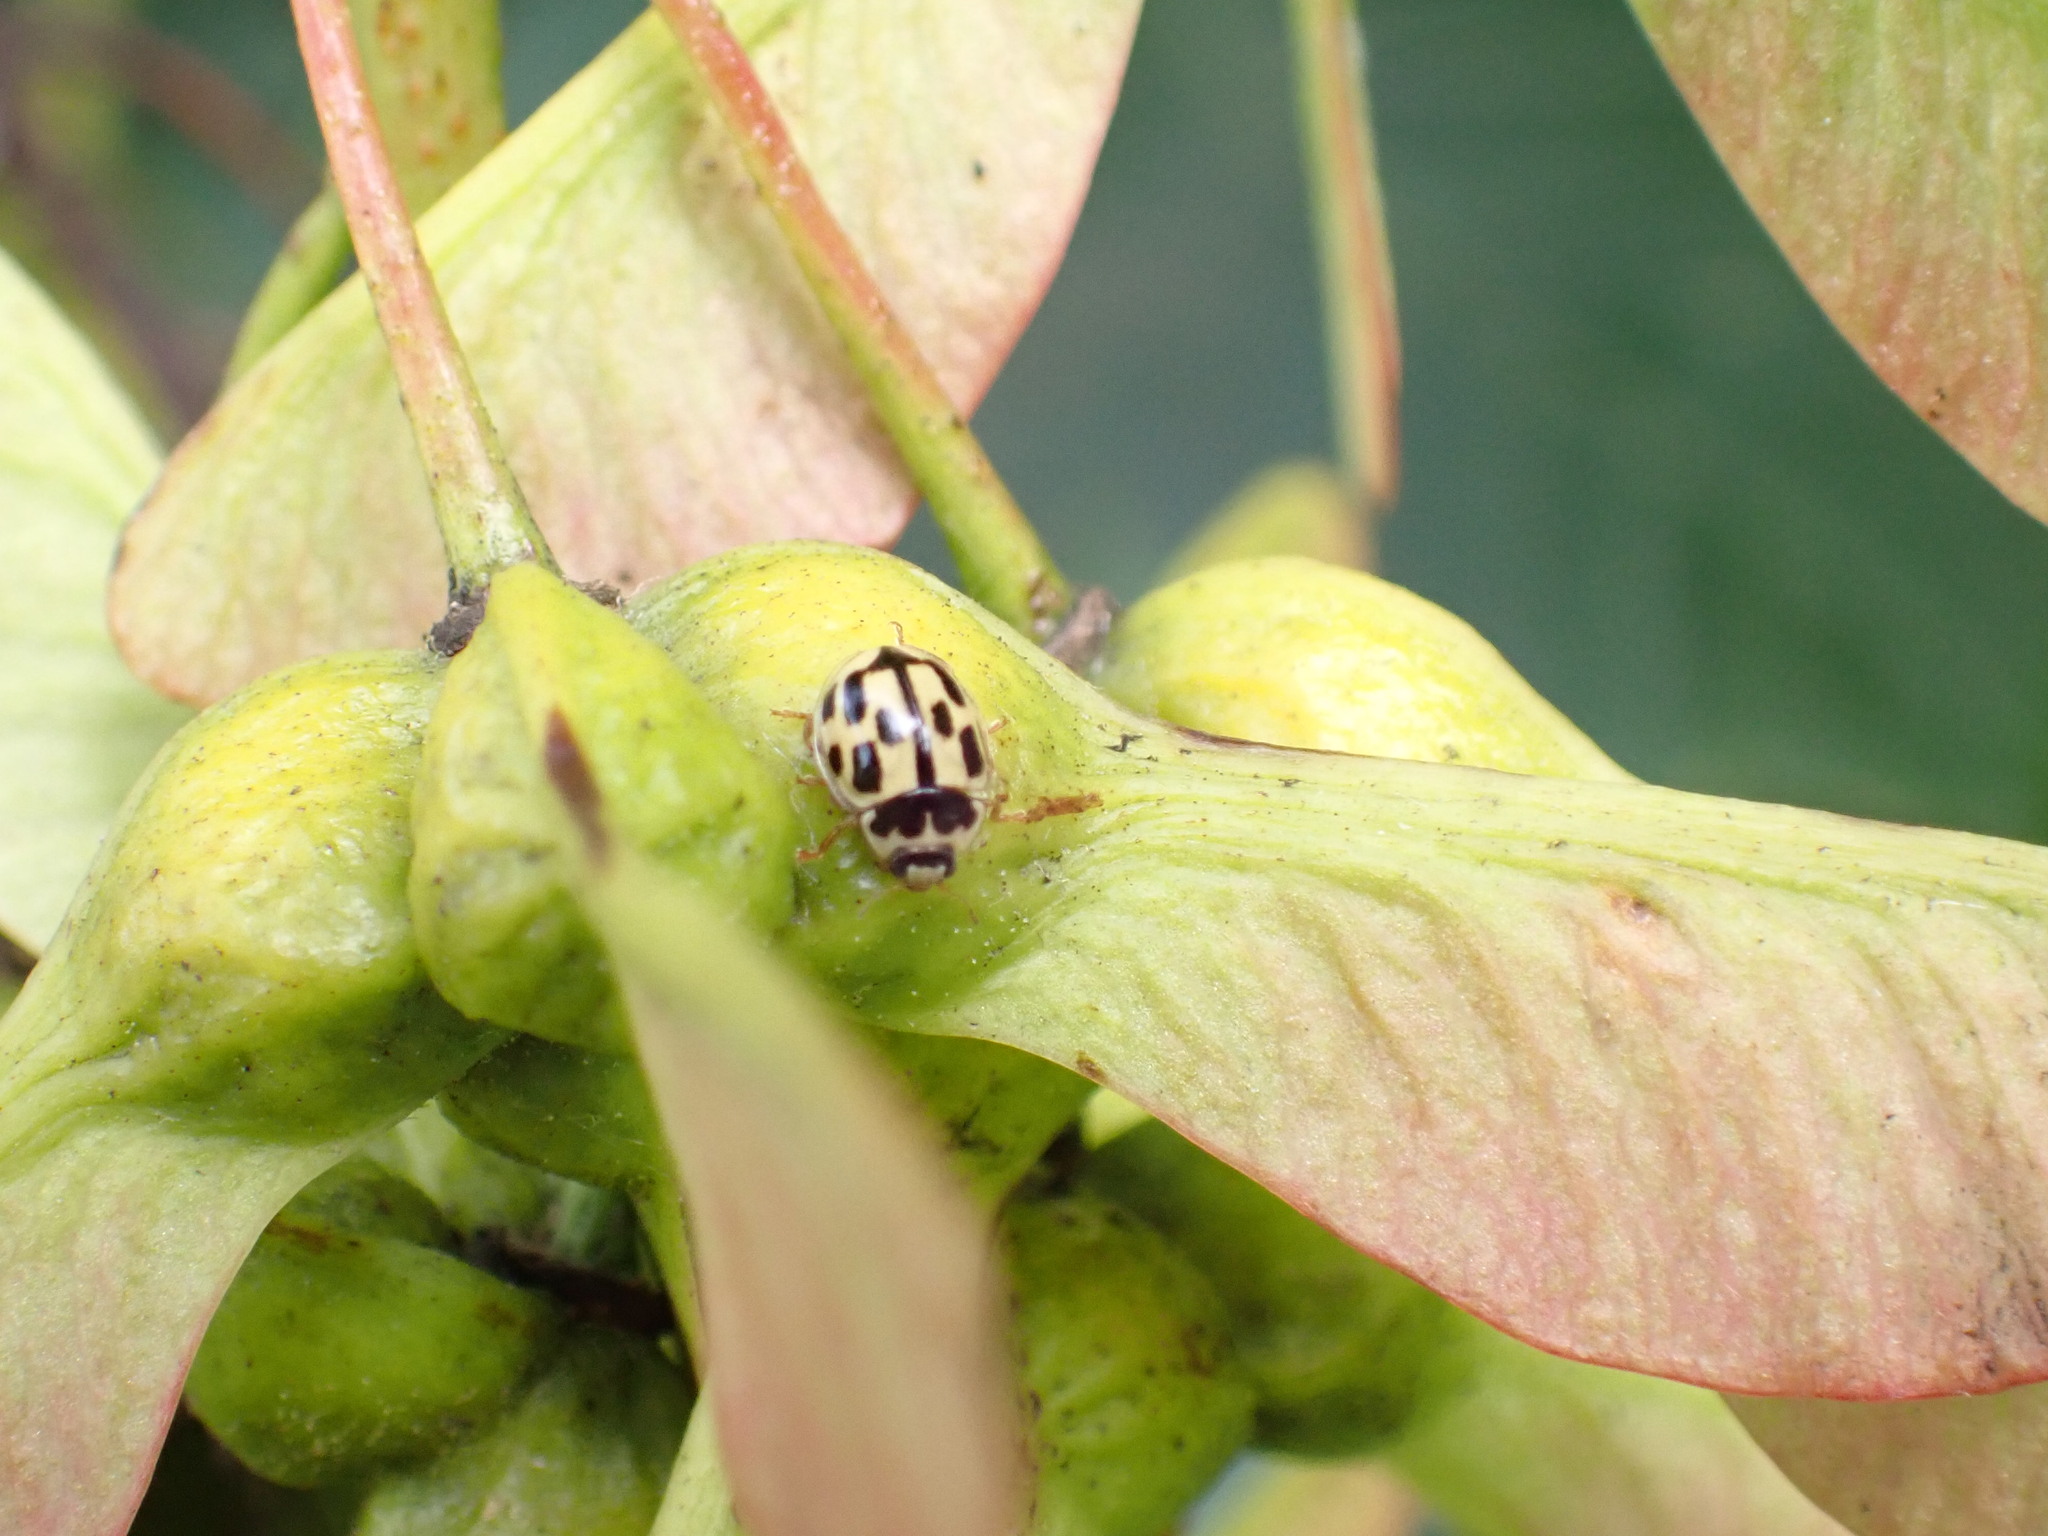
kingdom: Animalia
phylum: Arthropoda
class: Insecta
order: Coleoptera
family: Coccinellidae
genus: Propylaea
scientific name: Propylaea quatuordecimpunctata
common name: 14-spotted ladybird beetle
